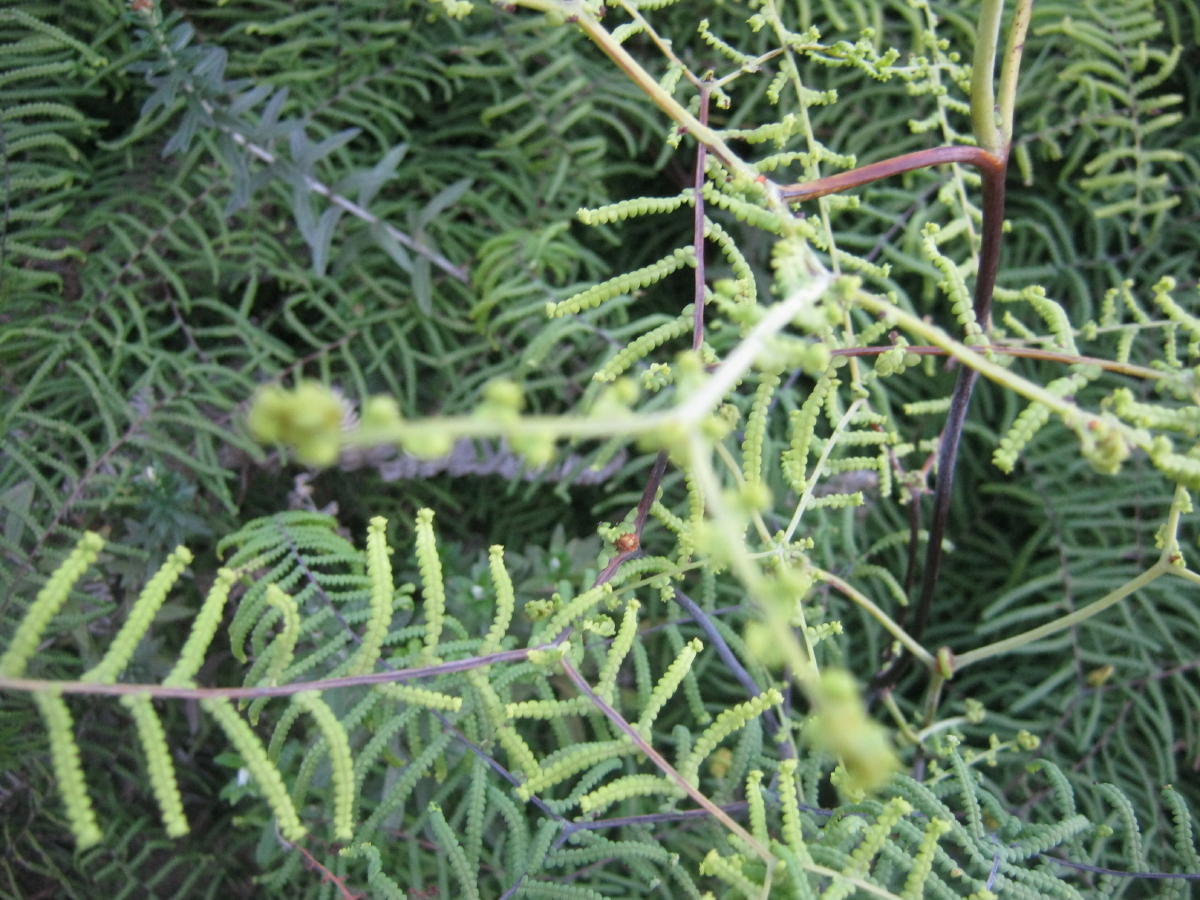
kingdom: Plantae
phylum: Tracheophyta
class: Polypodiopsida
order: Gleicheniales
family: Gleicheniaceae
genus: Gleichenia
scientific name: Gleichenia polypodioides
